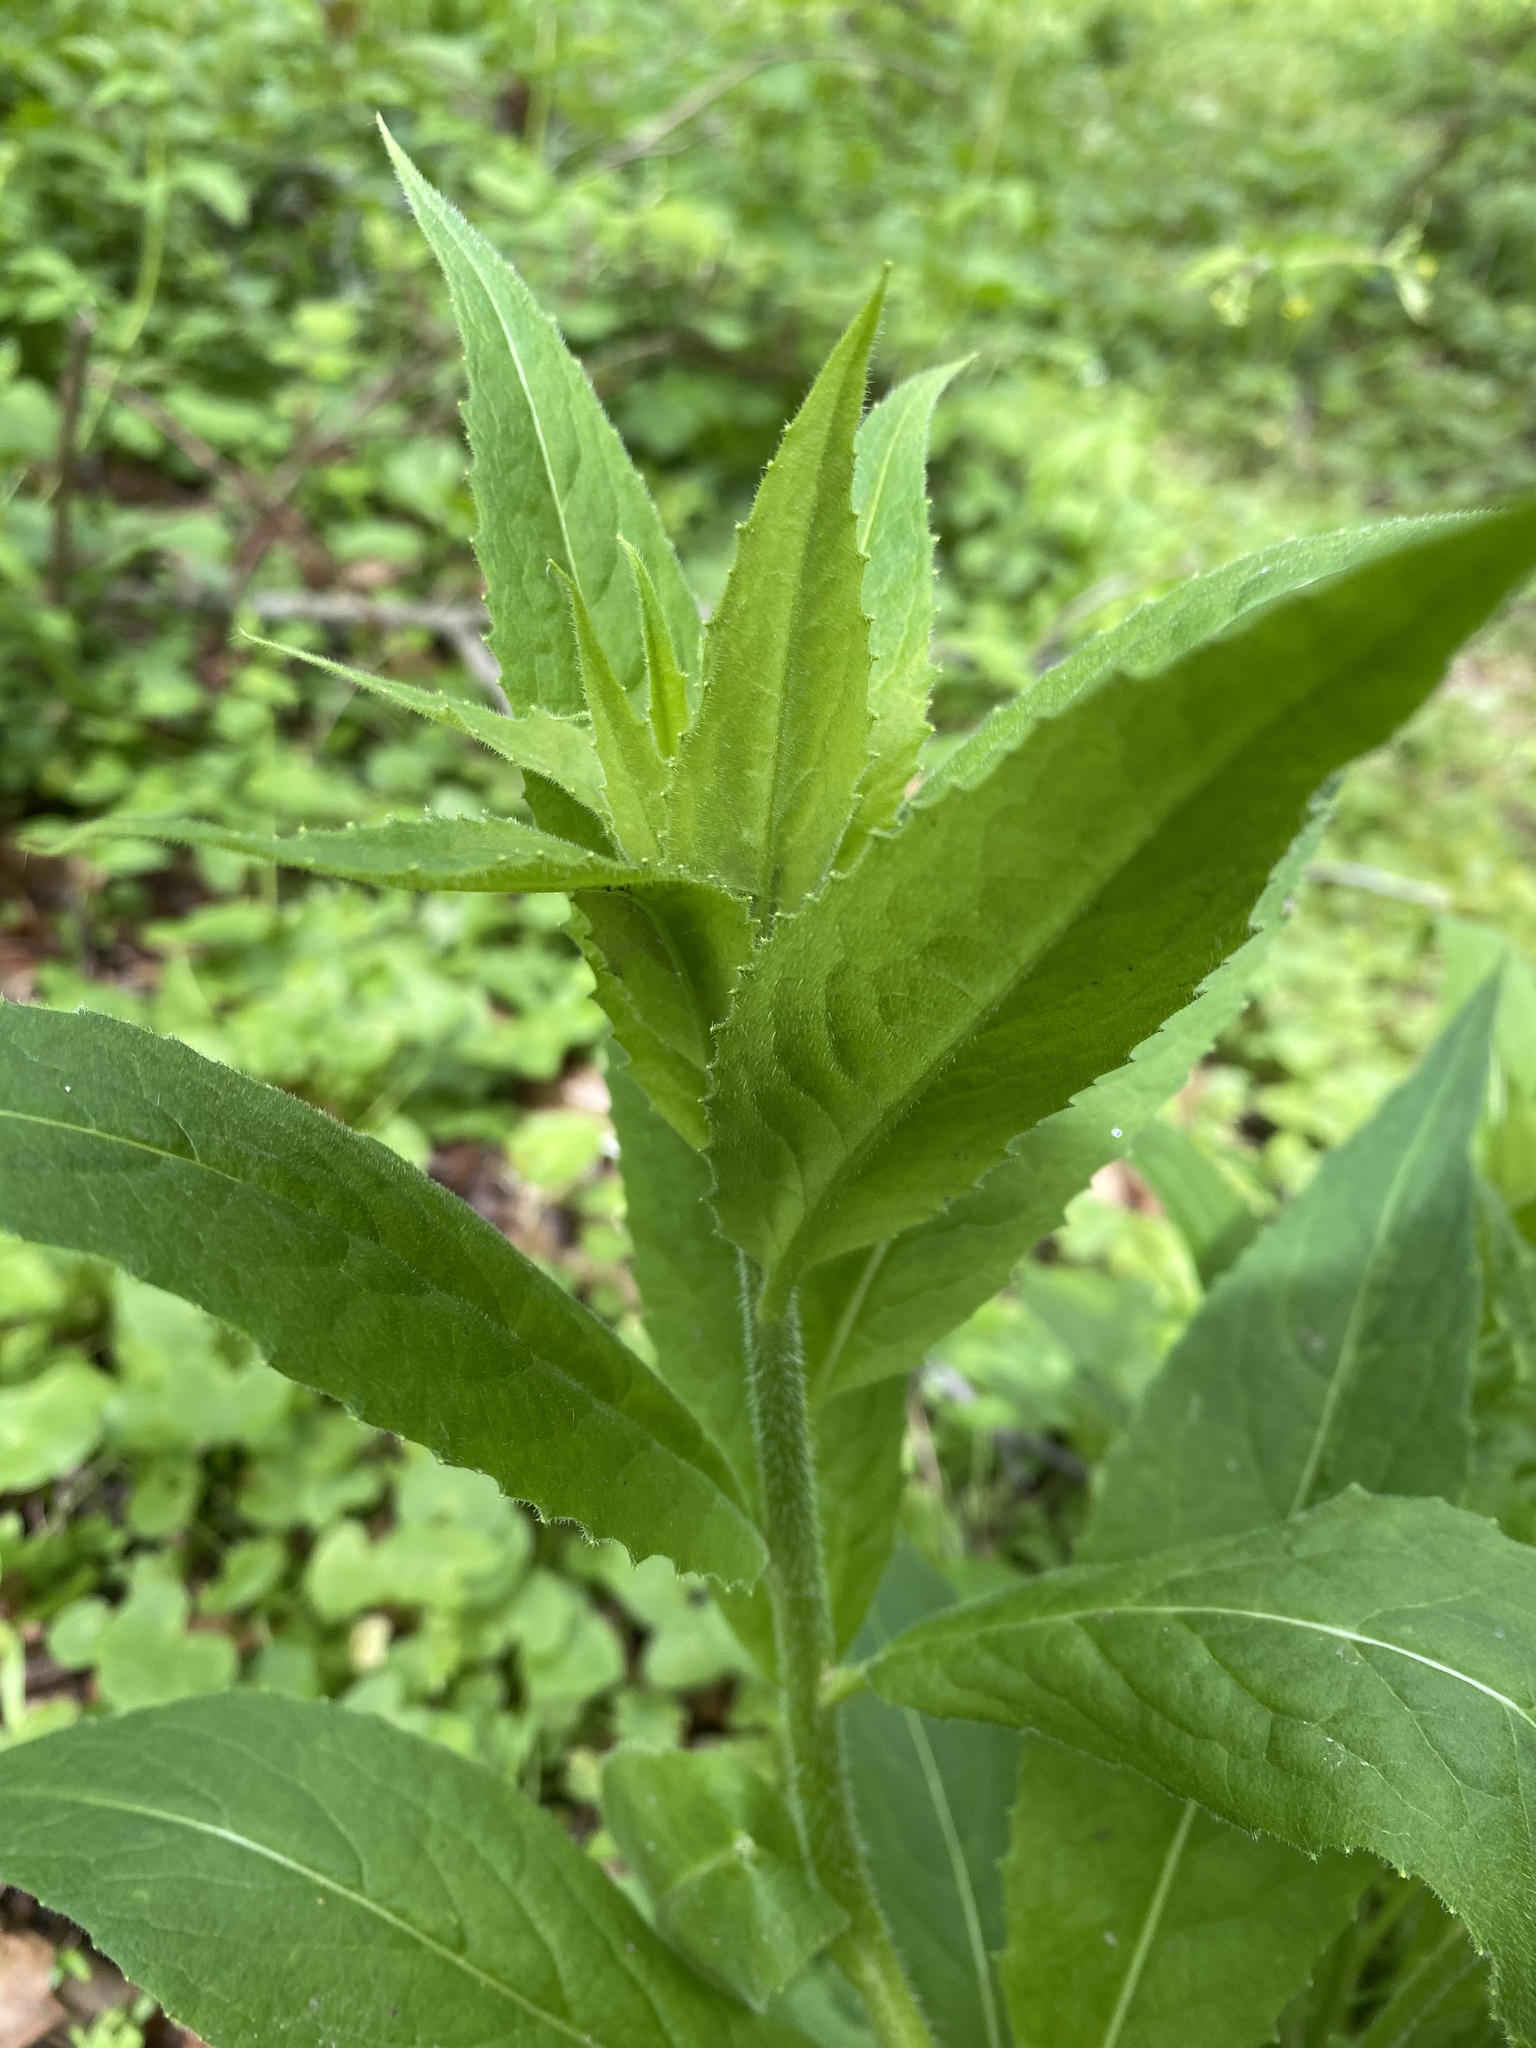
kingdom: Plantae
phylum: Tracheophyta
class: Magnoliopsida
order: Brassicales
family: Brassicaceae
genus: Hesperis
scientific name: Hesperis matronalis
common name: Dame's-violet
